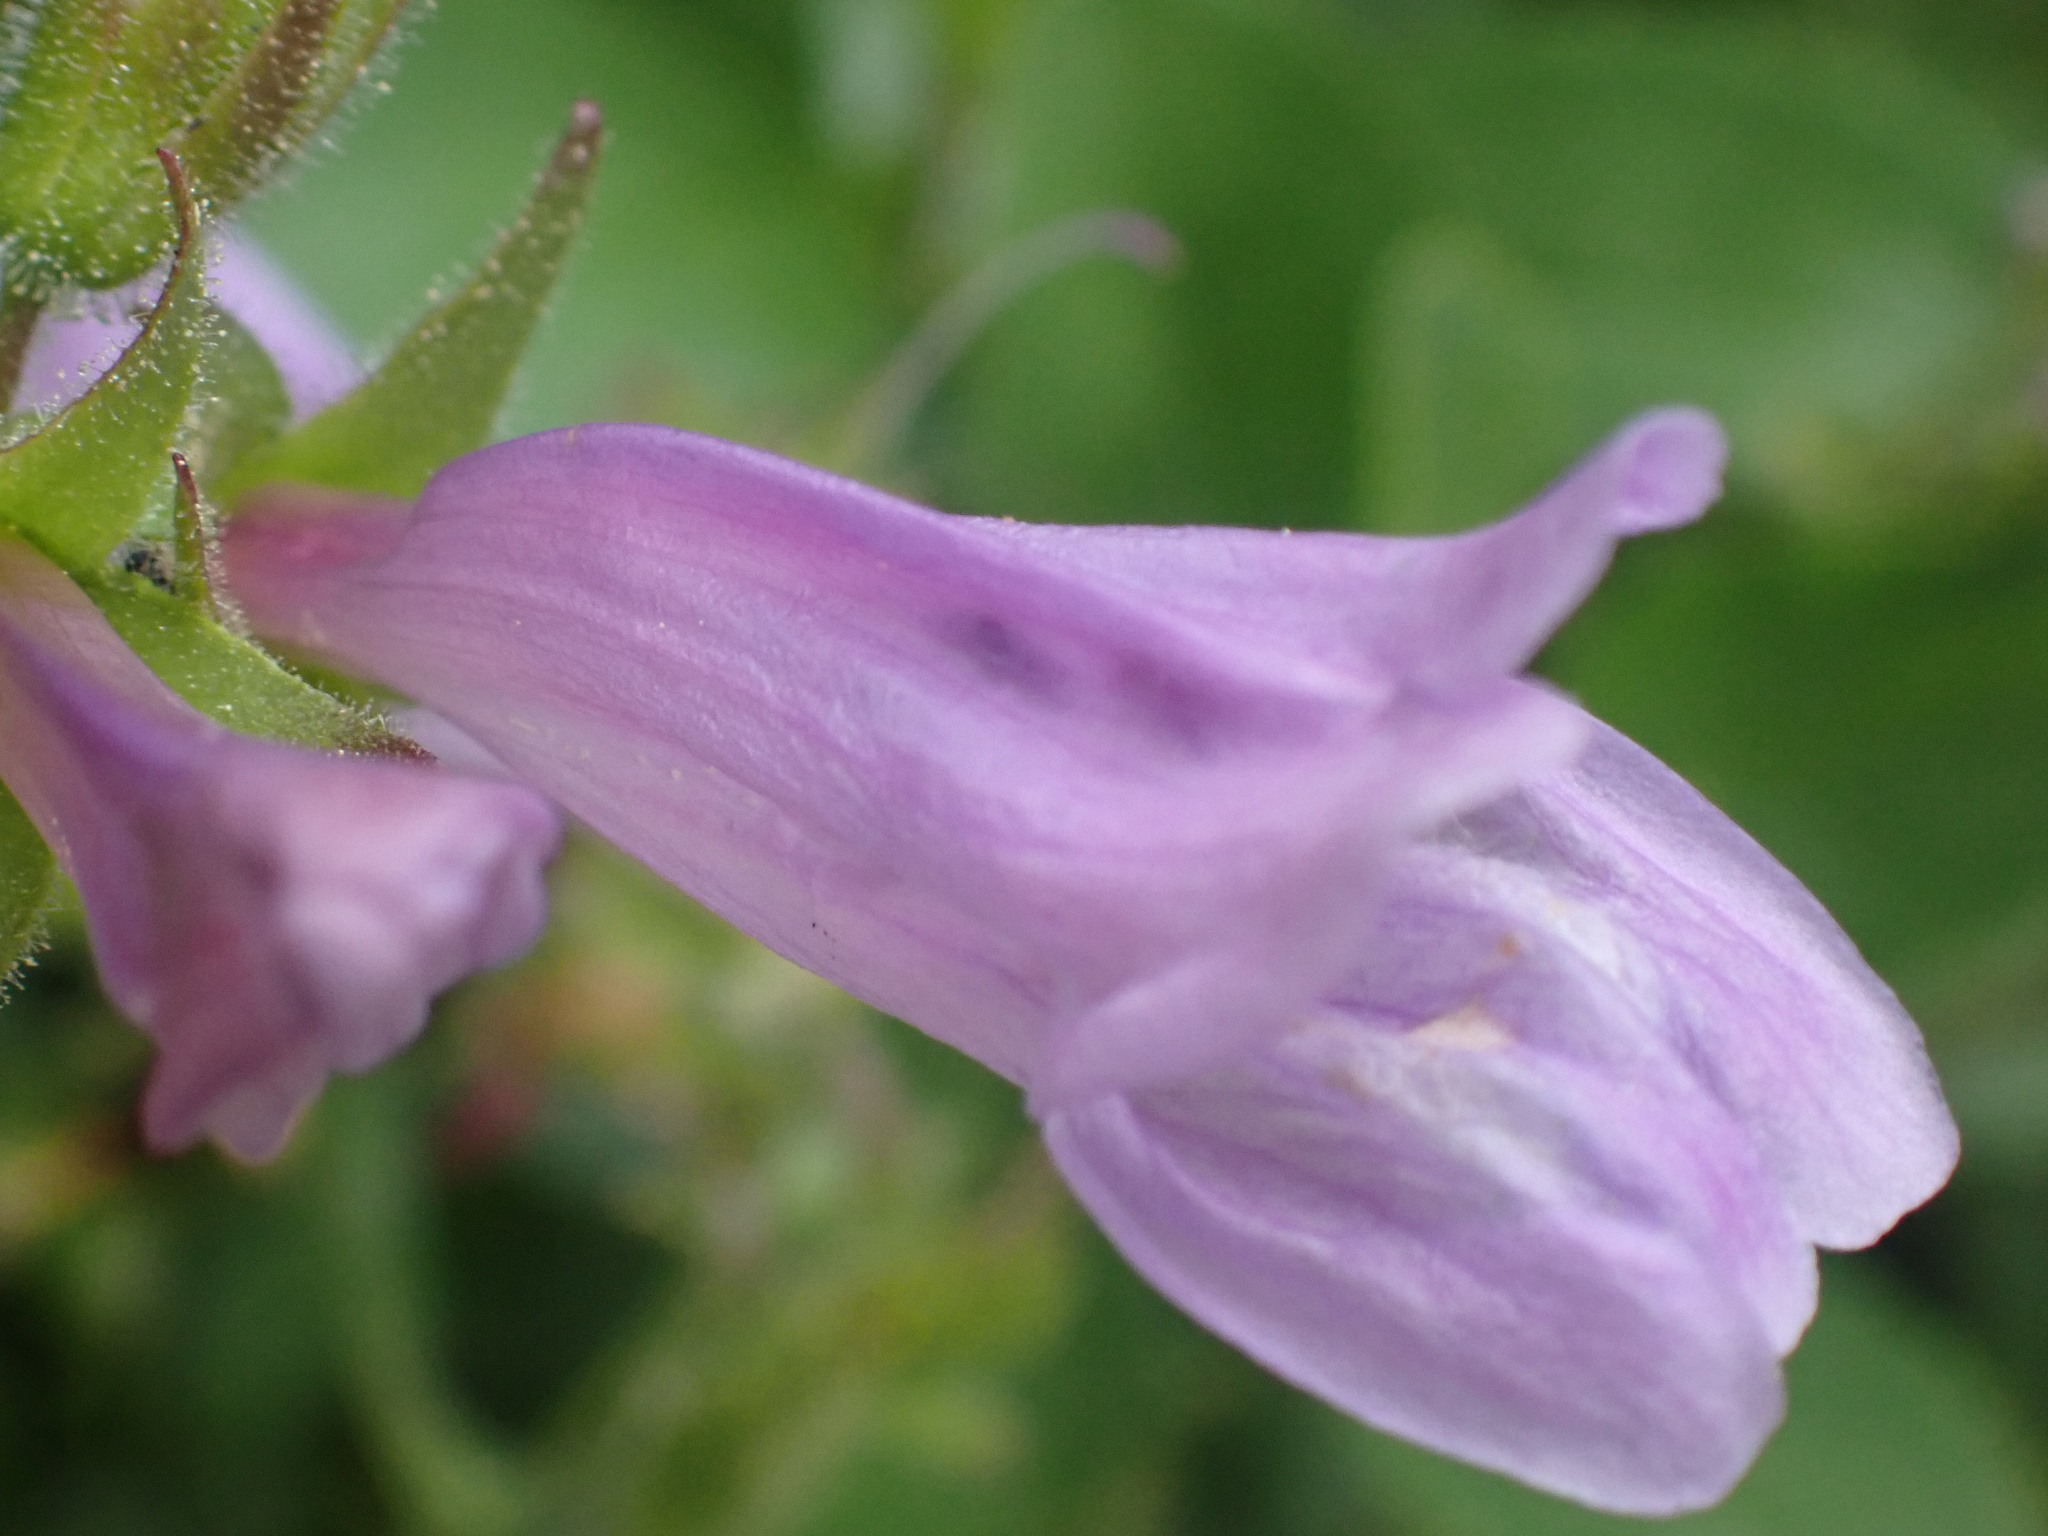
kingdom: Plantae
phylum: Tracheophyta
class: Magnoliopsida
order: Lamiales
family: Plantaginaceae
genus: Penstemon
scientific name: Penstemon ellipticus
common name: Alpine beardtongue
